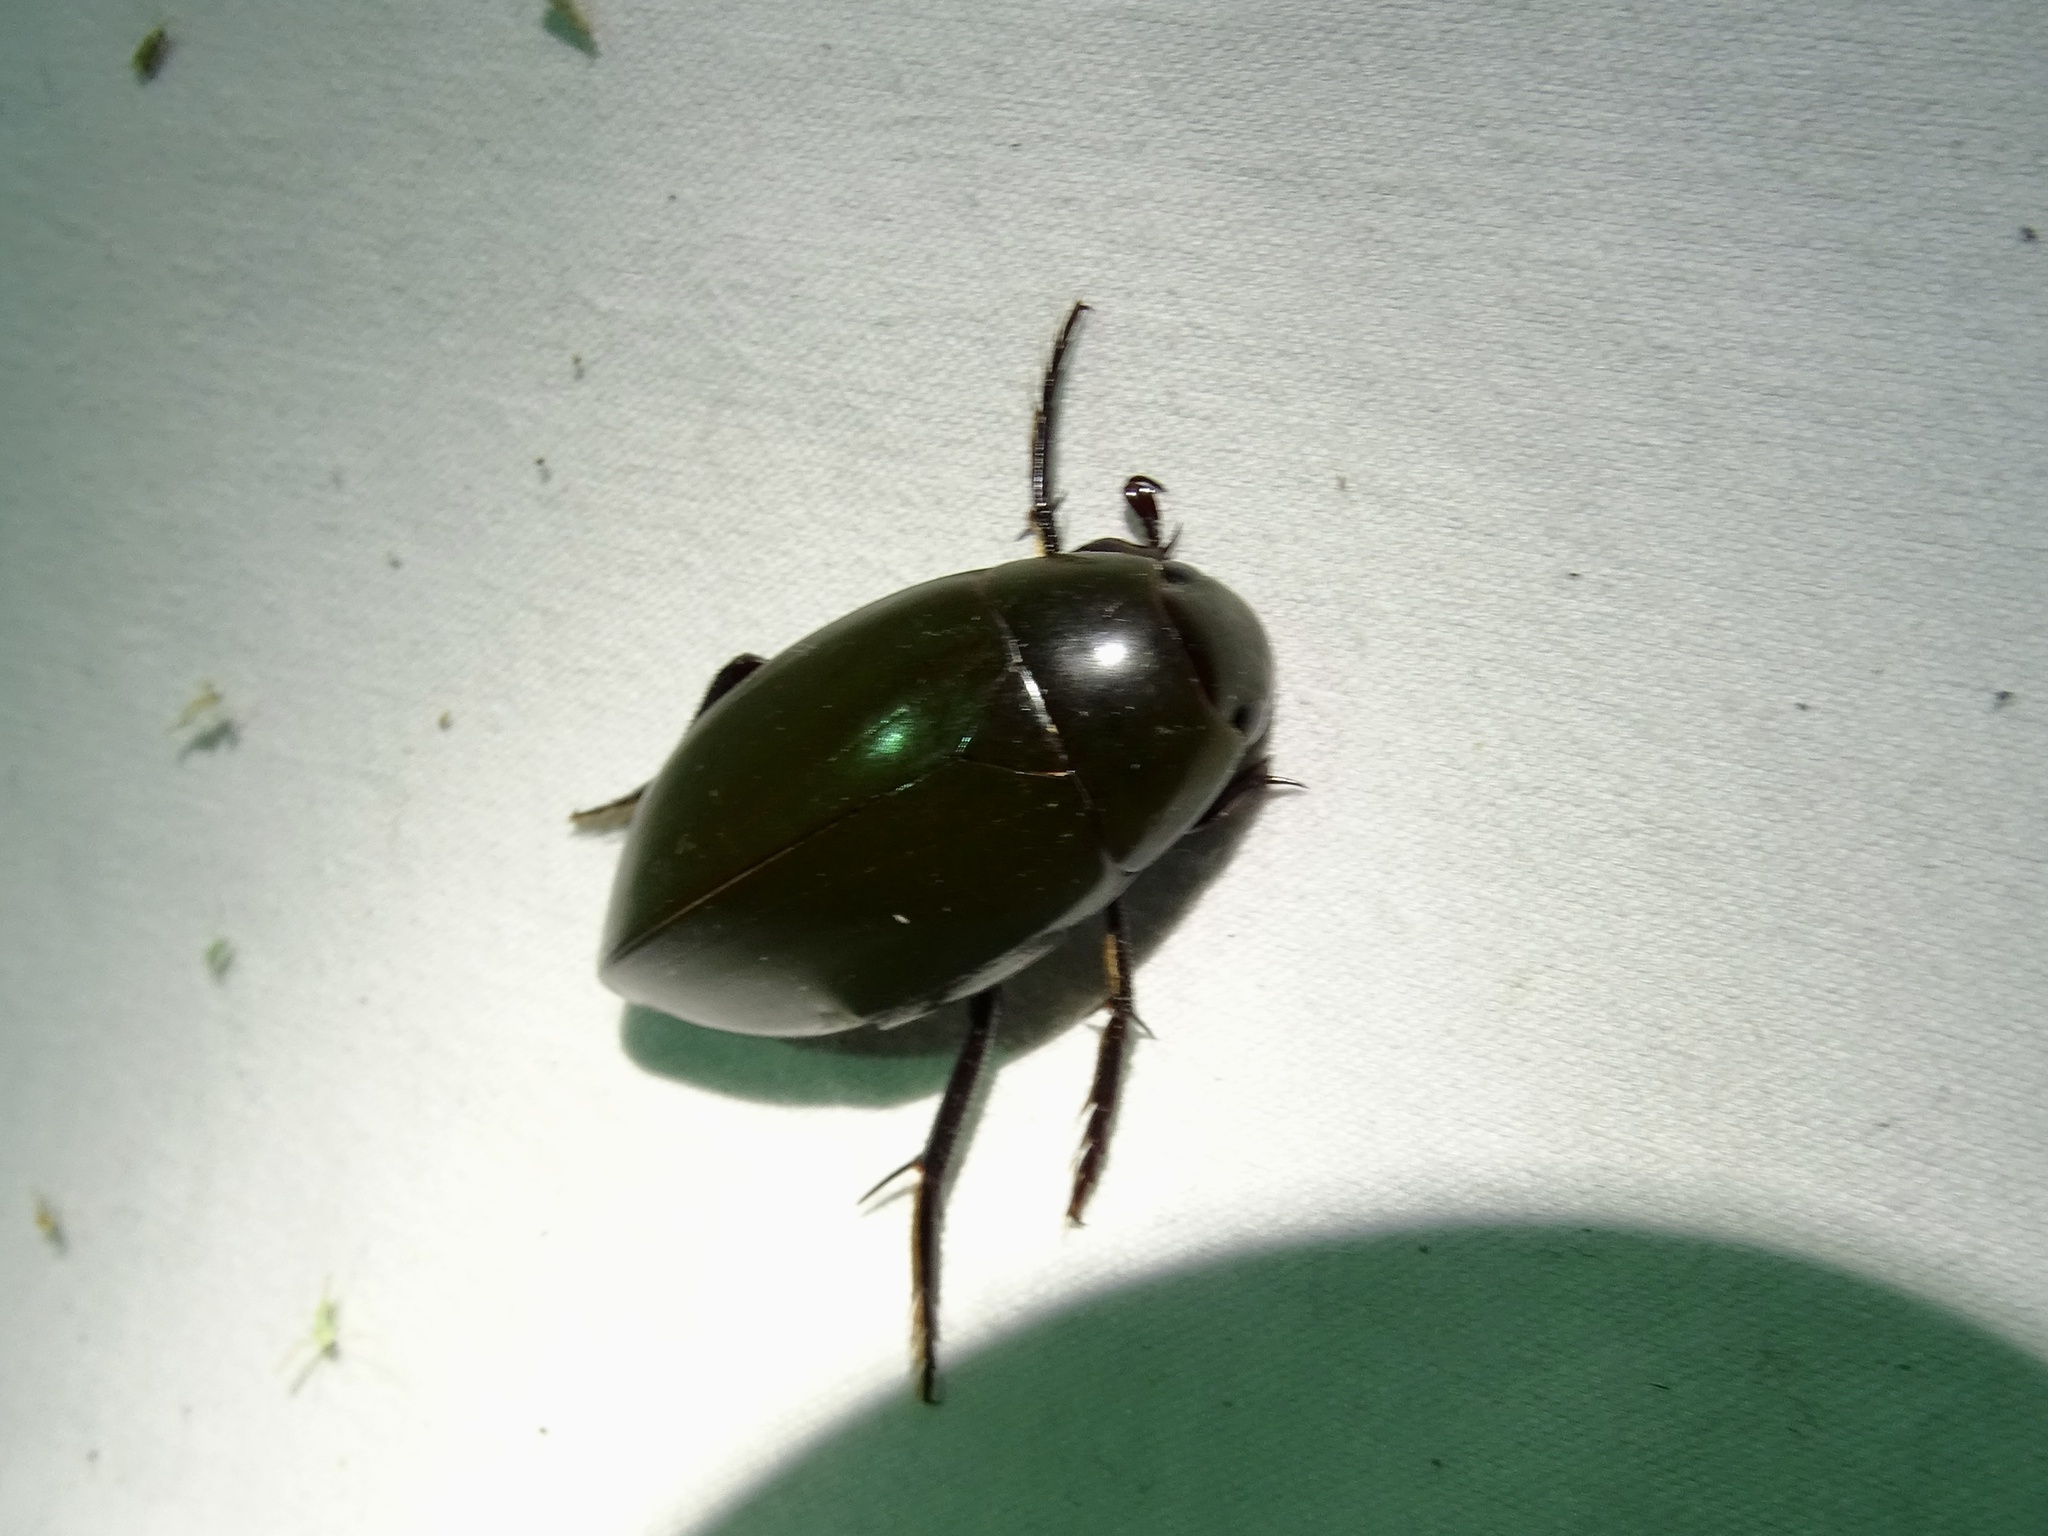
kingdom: Animalia
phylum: Arthropoda
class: Insecta
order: Coleoptera
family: Hydrophilidae
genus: Hydrophilus
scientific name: Hydrophilus triangularis
